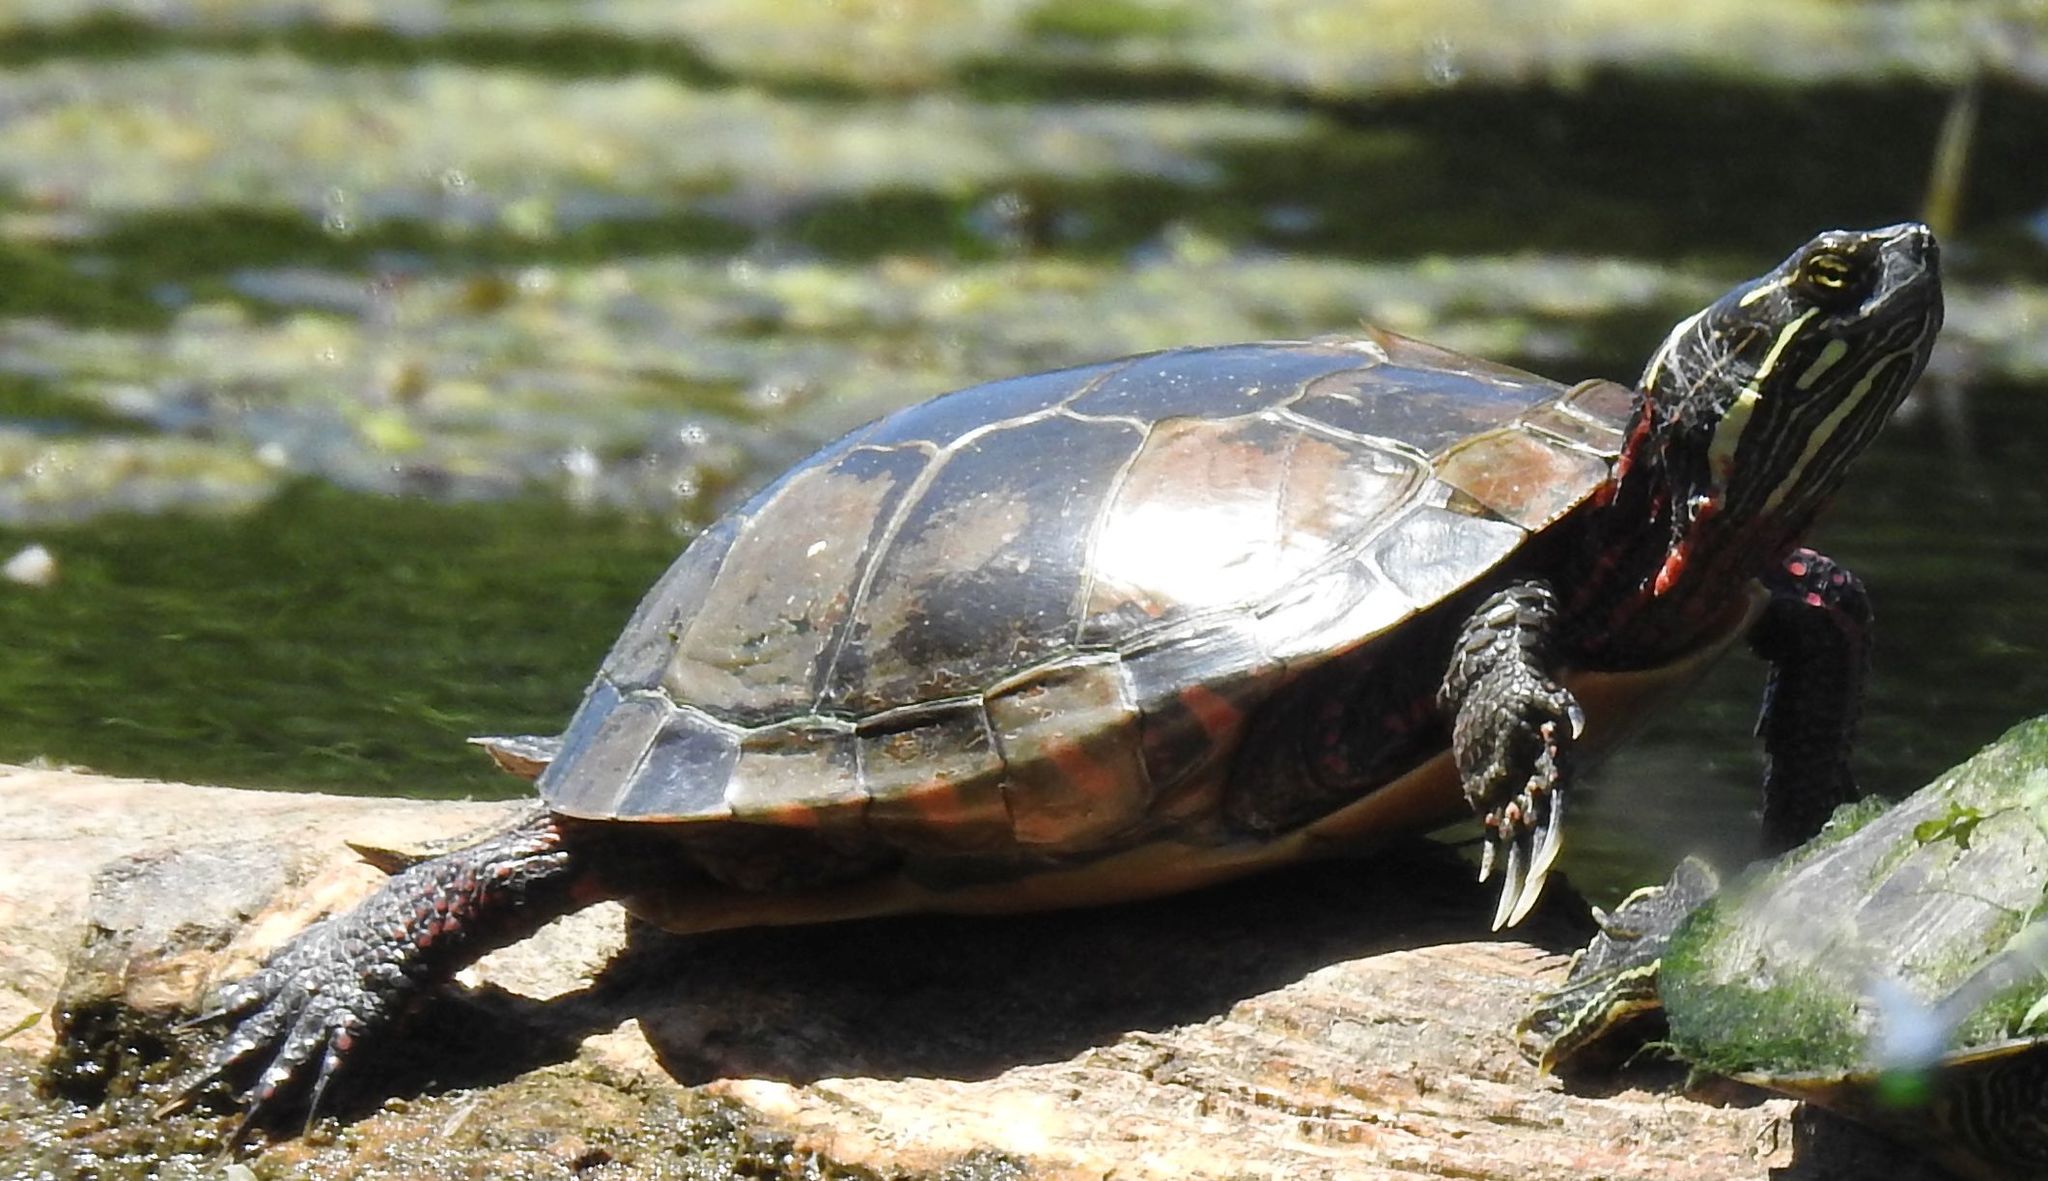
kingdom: Animalia
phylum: Chordata
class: Testudines
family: Emydidae
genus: Chrysemys
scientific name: Chrysemys picta
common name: Painted turtle
